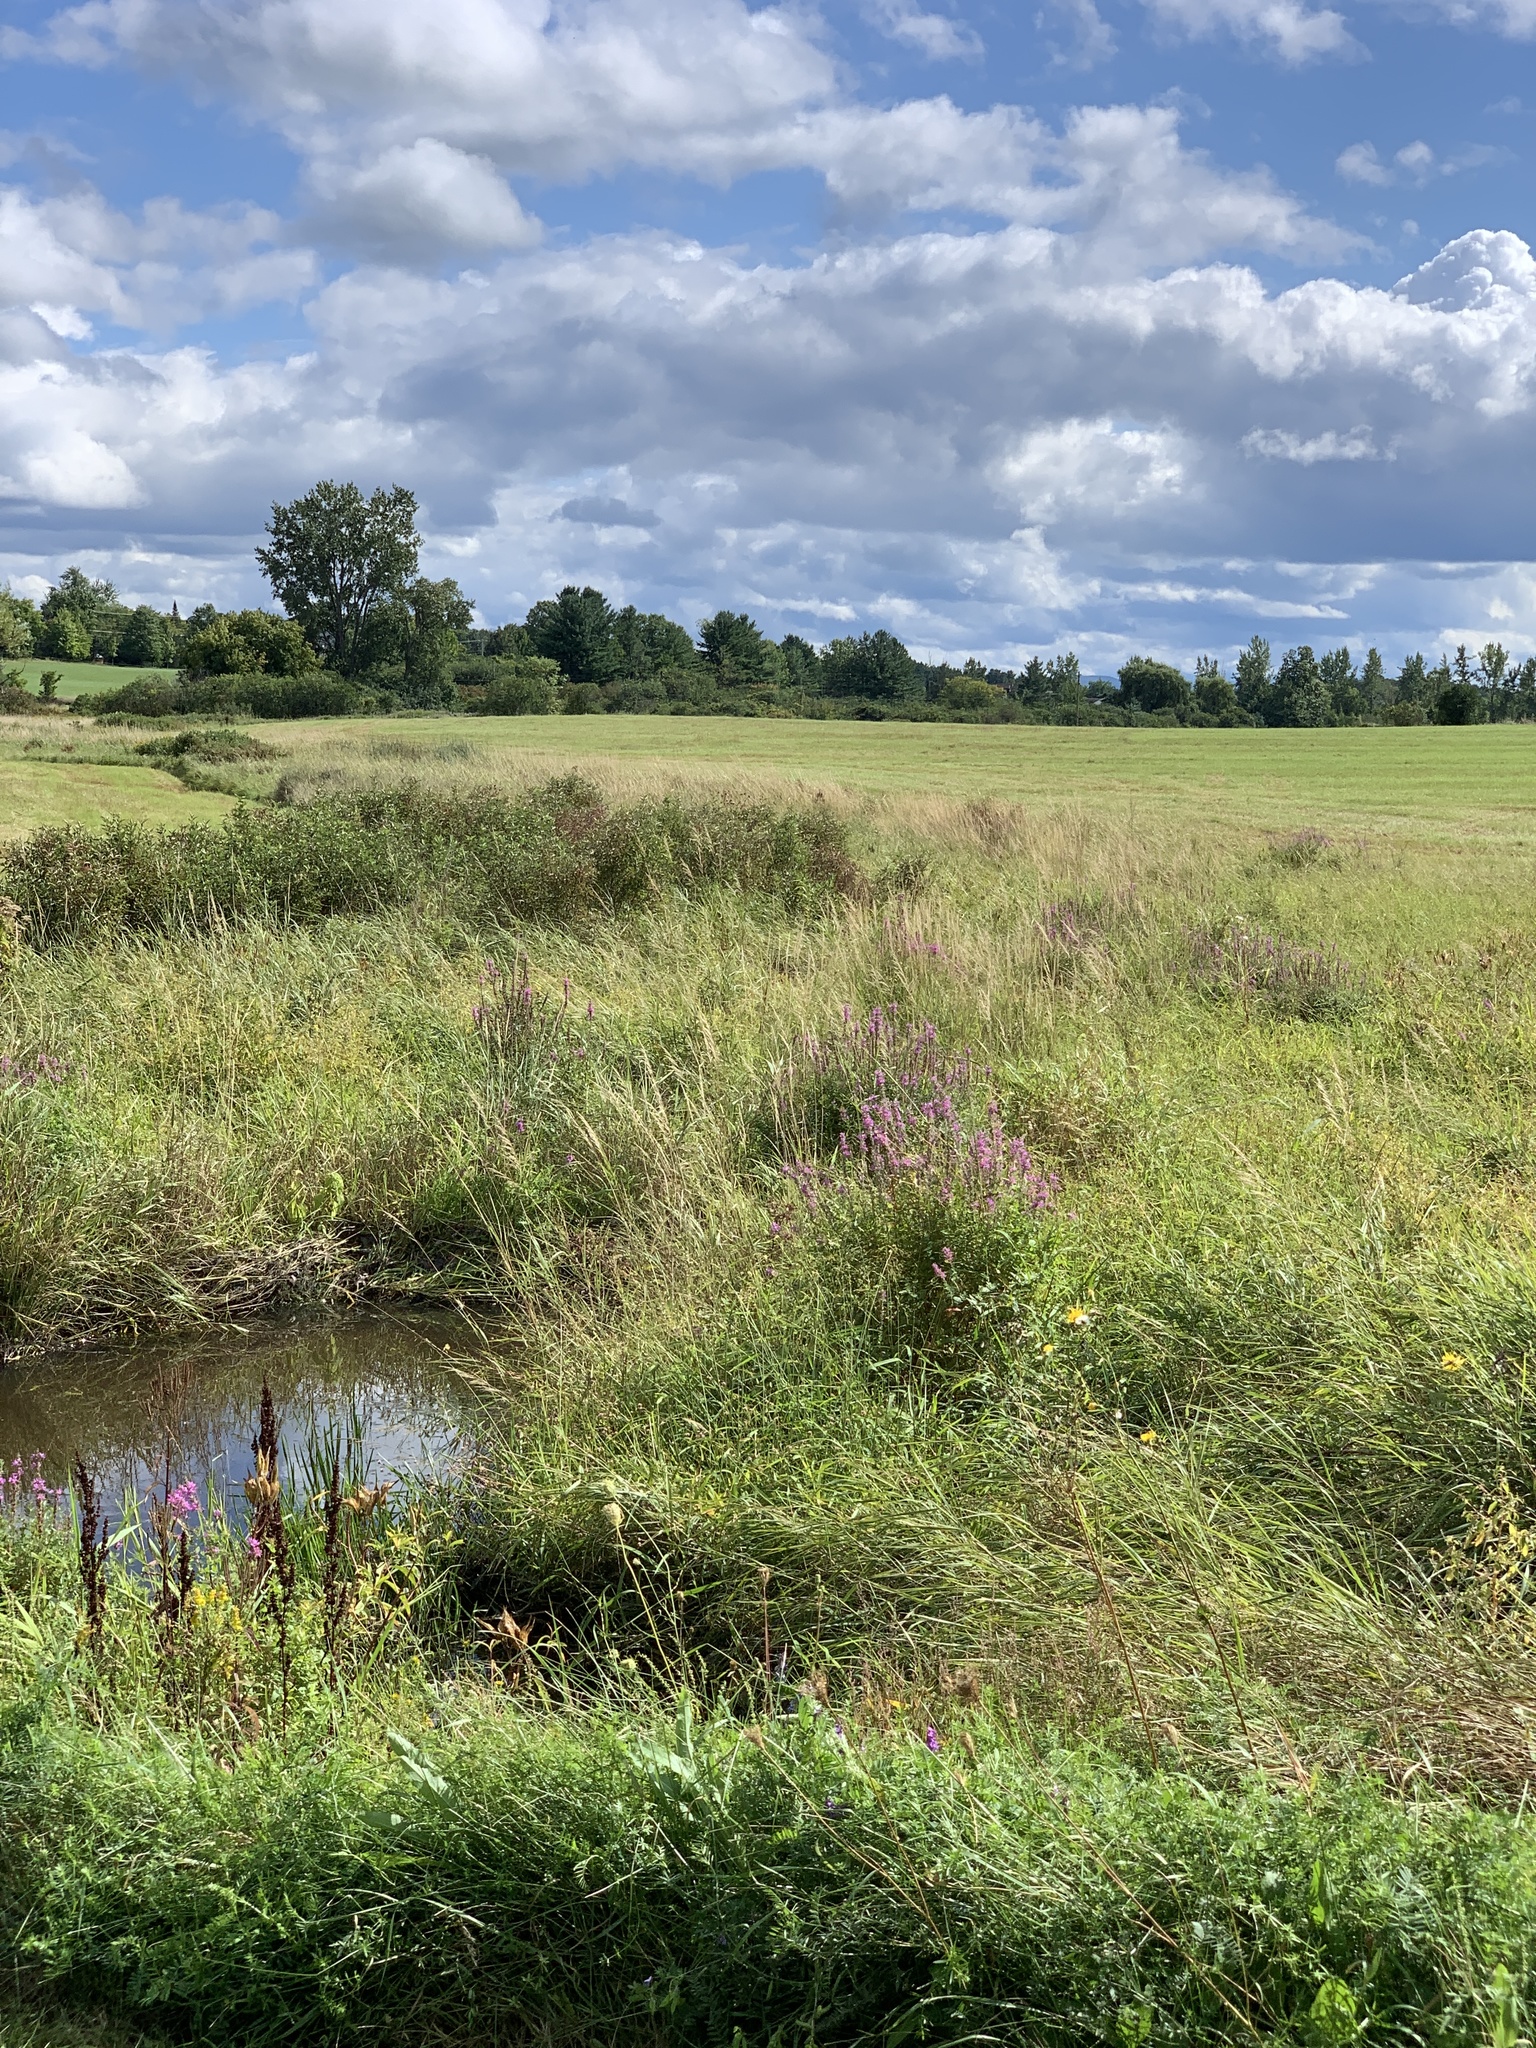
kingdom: Plantae
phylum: Tracheophyta
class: Magnoliopsida
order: Myrtales
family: Lythraceae
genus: Lythrum
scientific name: Lythrum salicaria
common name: Purple loosestrife
